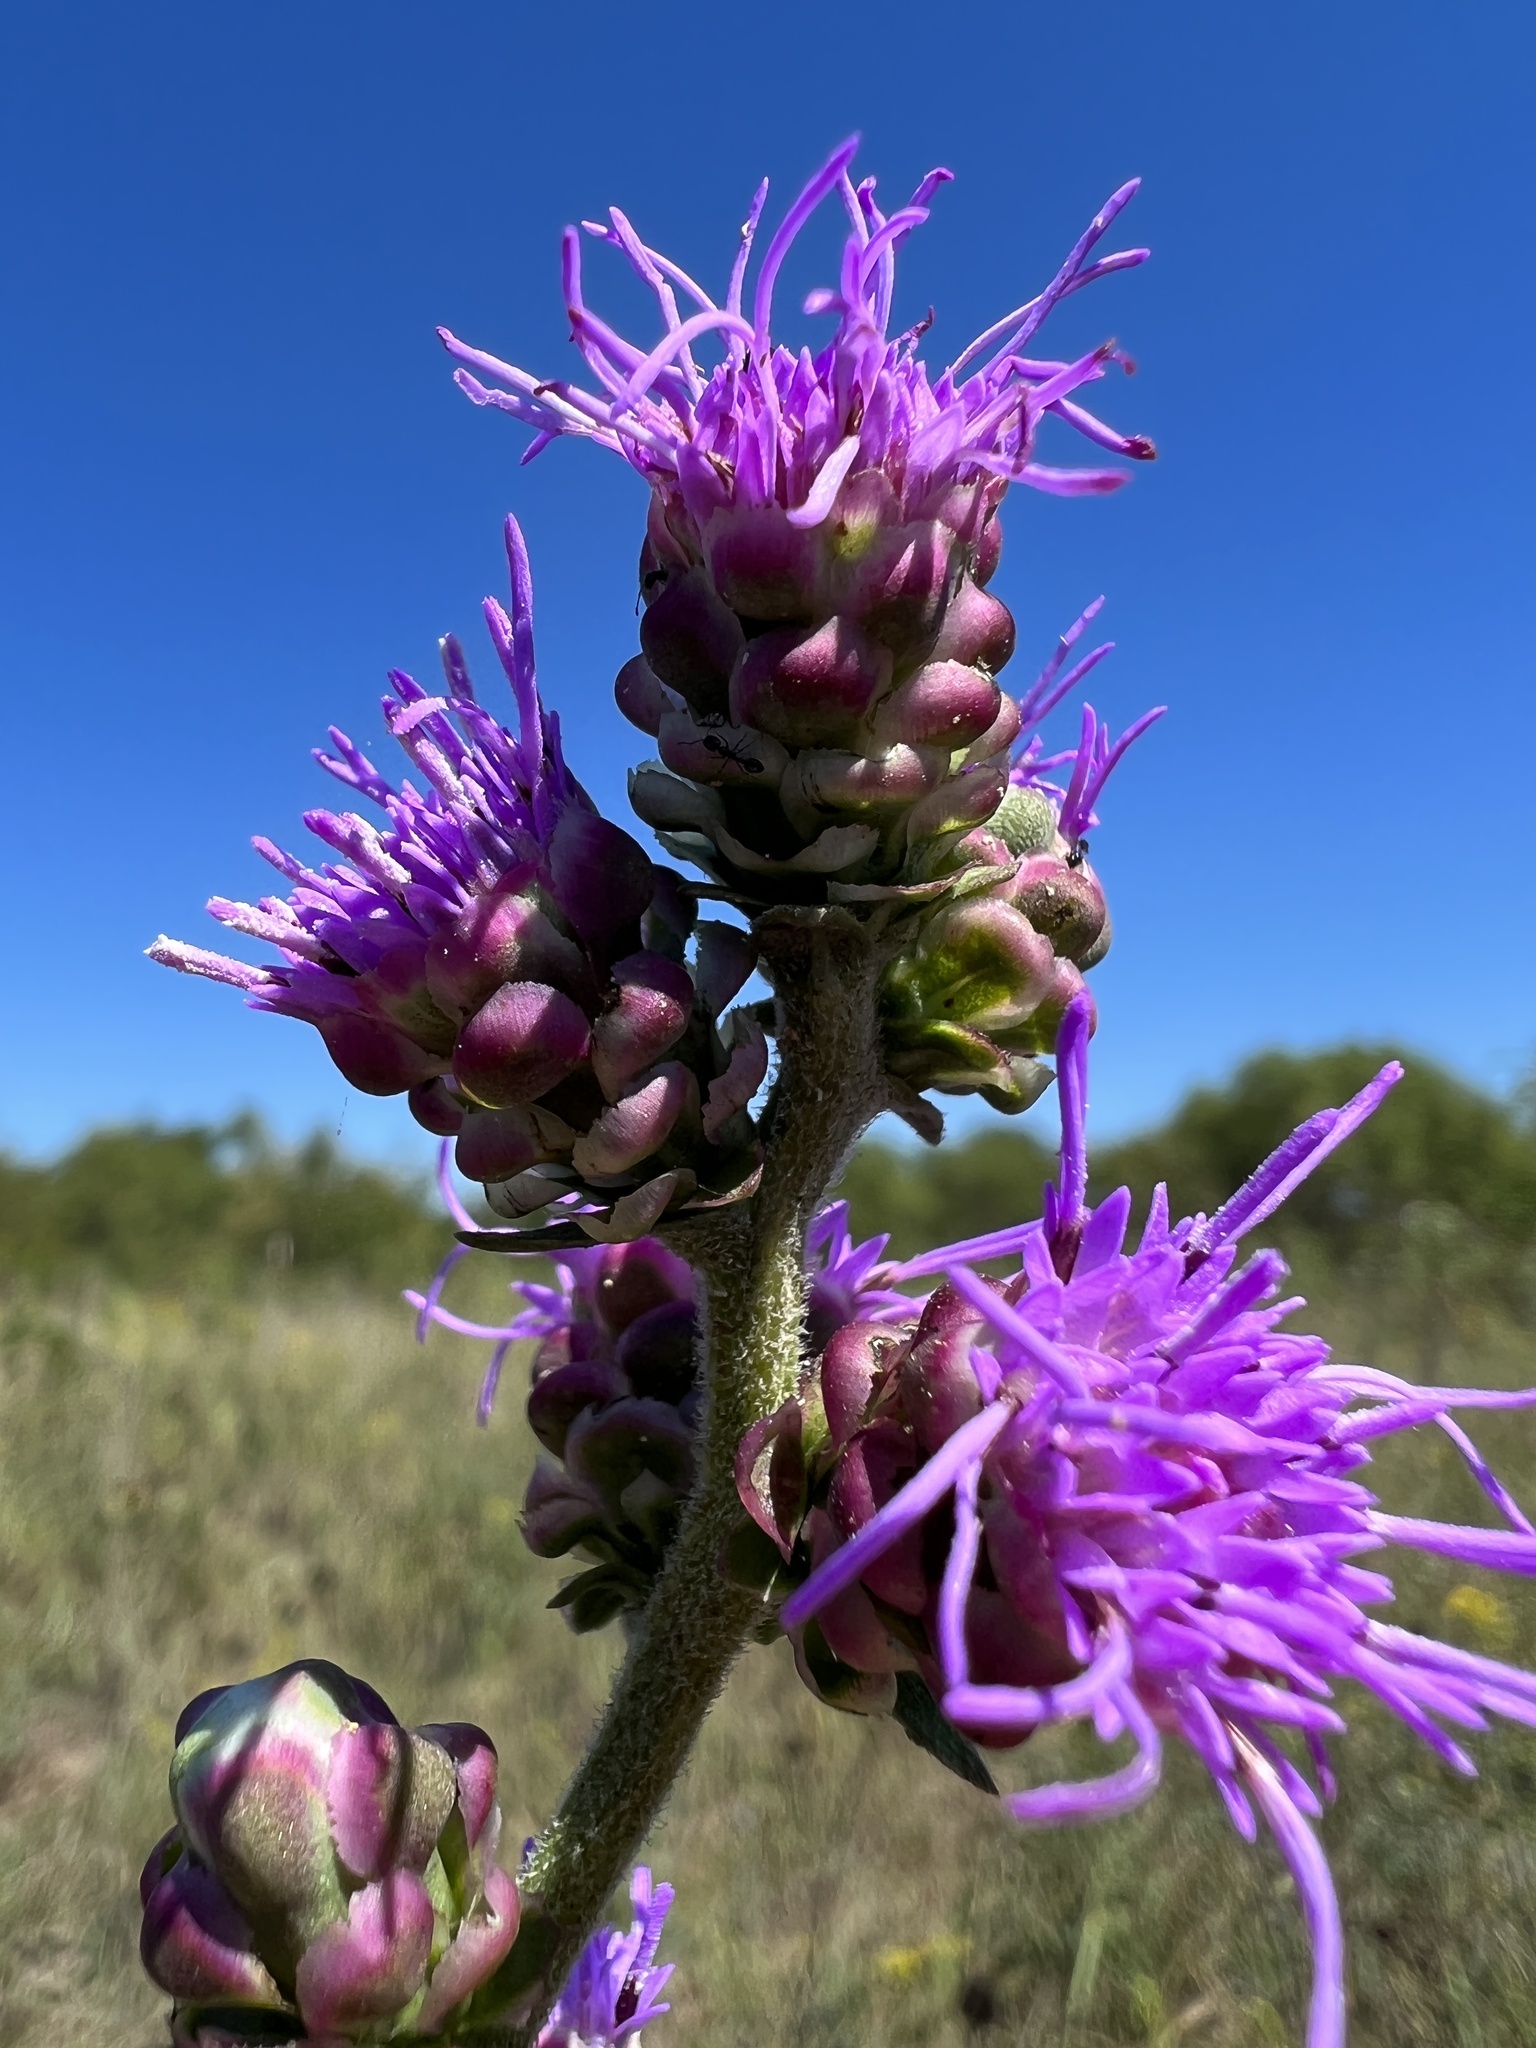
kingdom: Plantae
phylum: Tracheophyta
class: Magnoliopsida
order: Asterales
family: Asteraceae
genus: Liatris
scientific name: Liatris aspera
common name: Lacerate blazing-star
